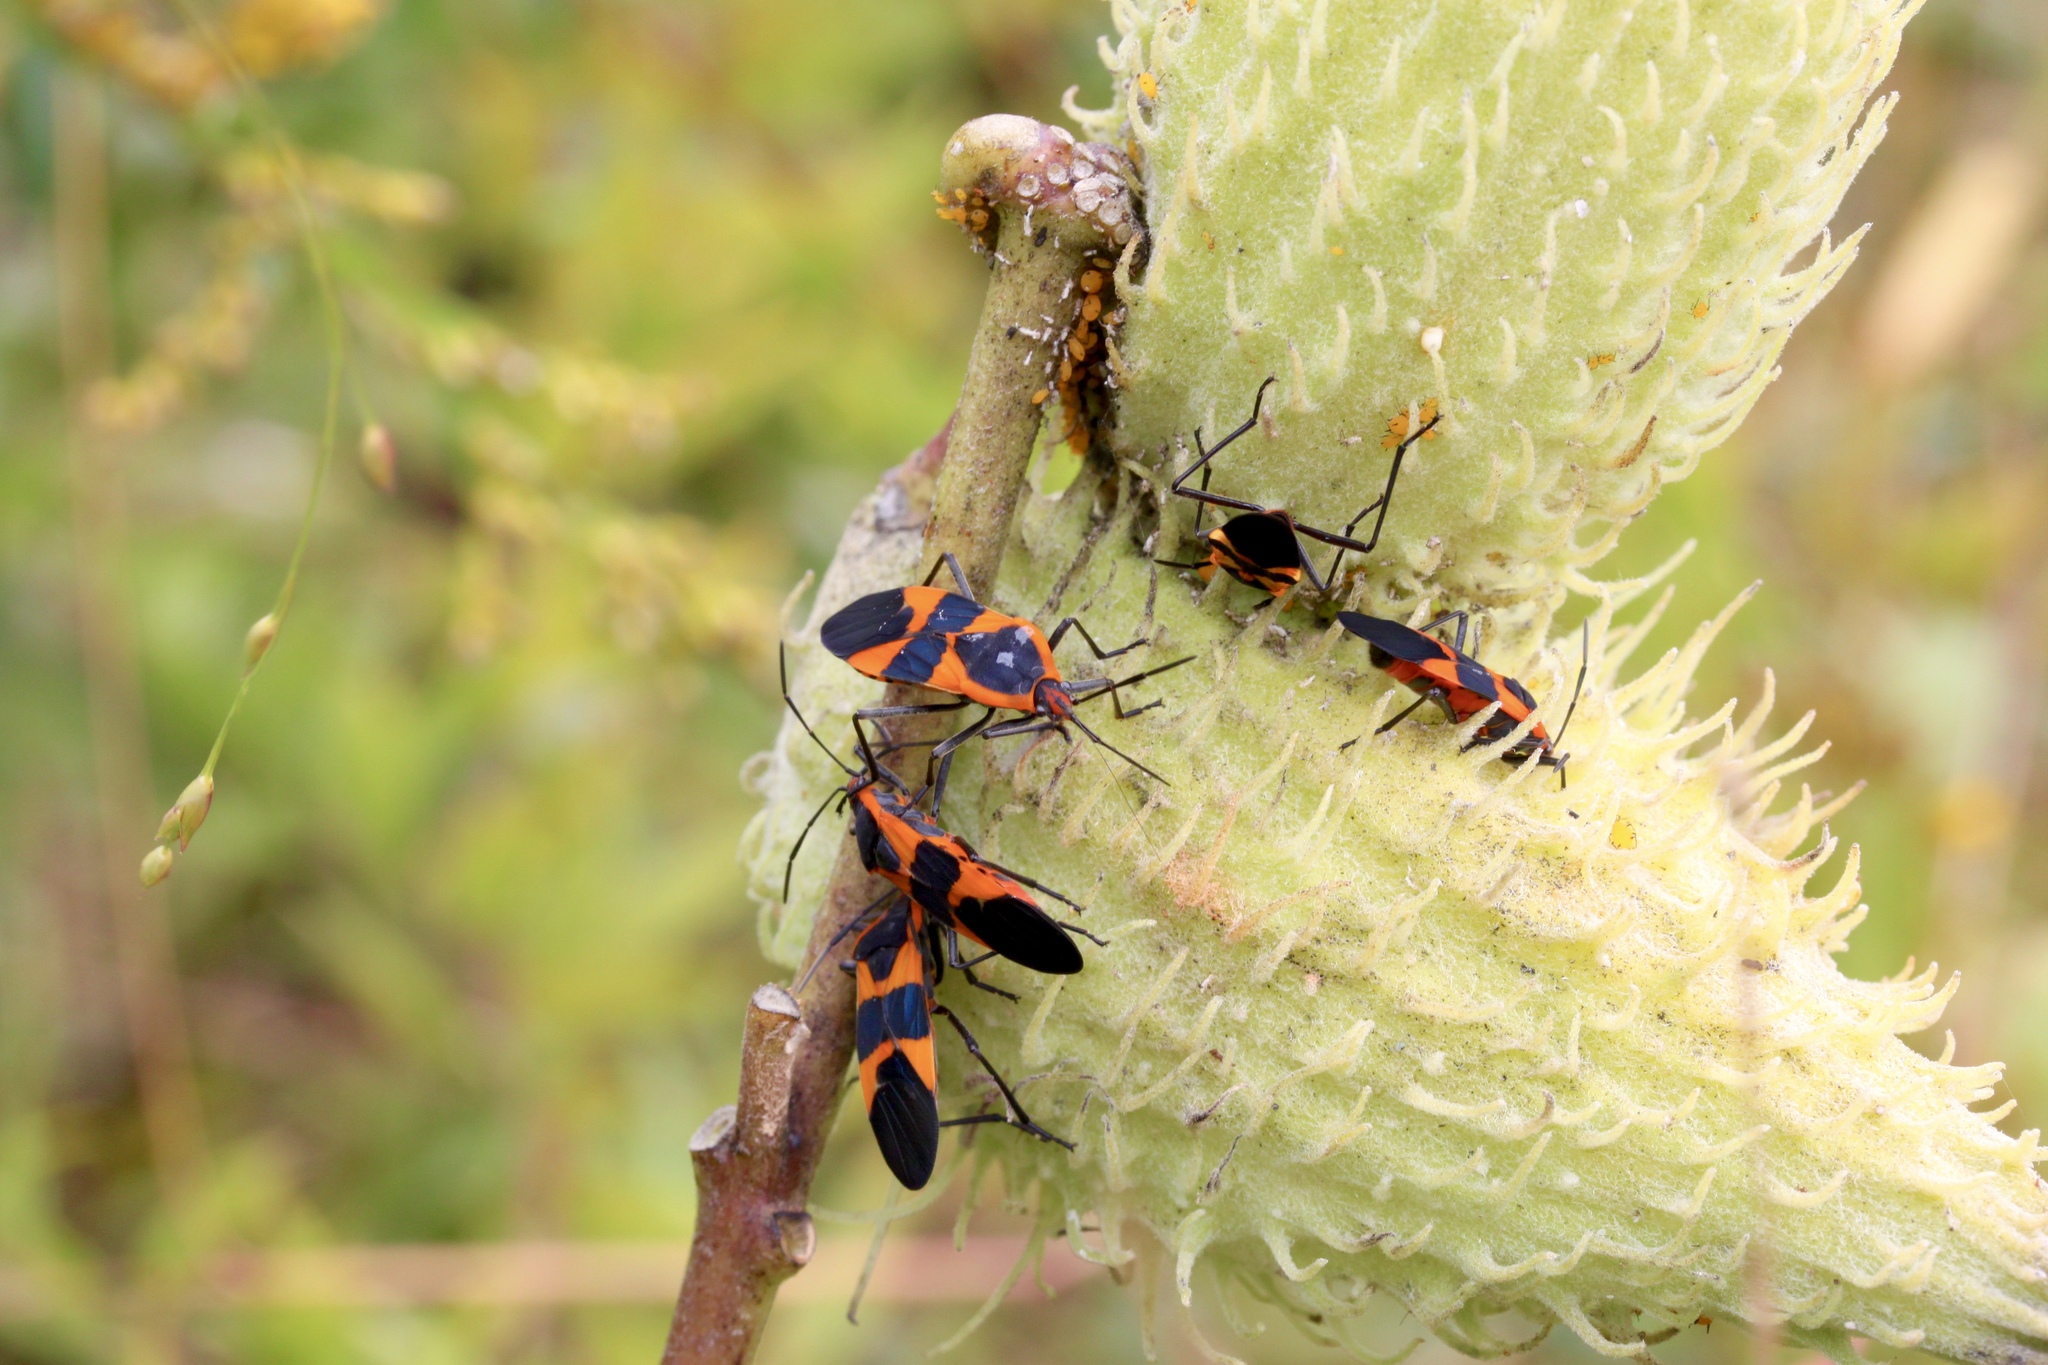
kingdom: Animalia
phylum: Arthropoda
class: Insecta
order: Hemiptera
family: Lygaeidae
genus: Oncopeltus
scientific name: Oncopeltus fasciatus
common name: Large milkweed bug
